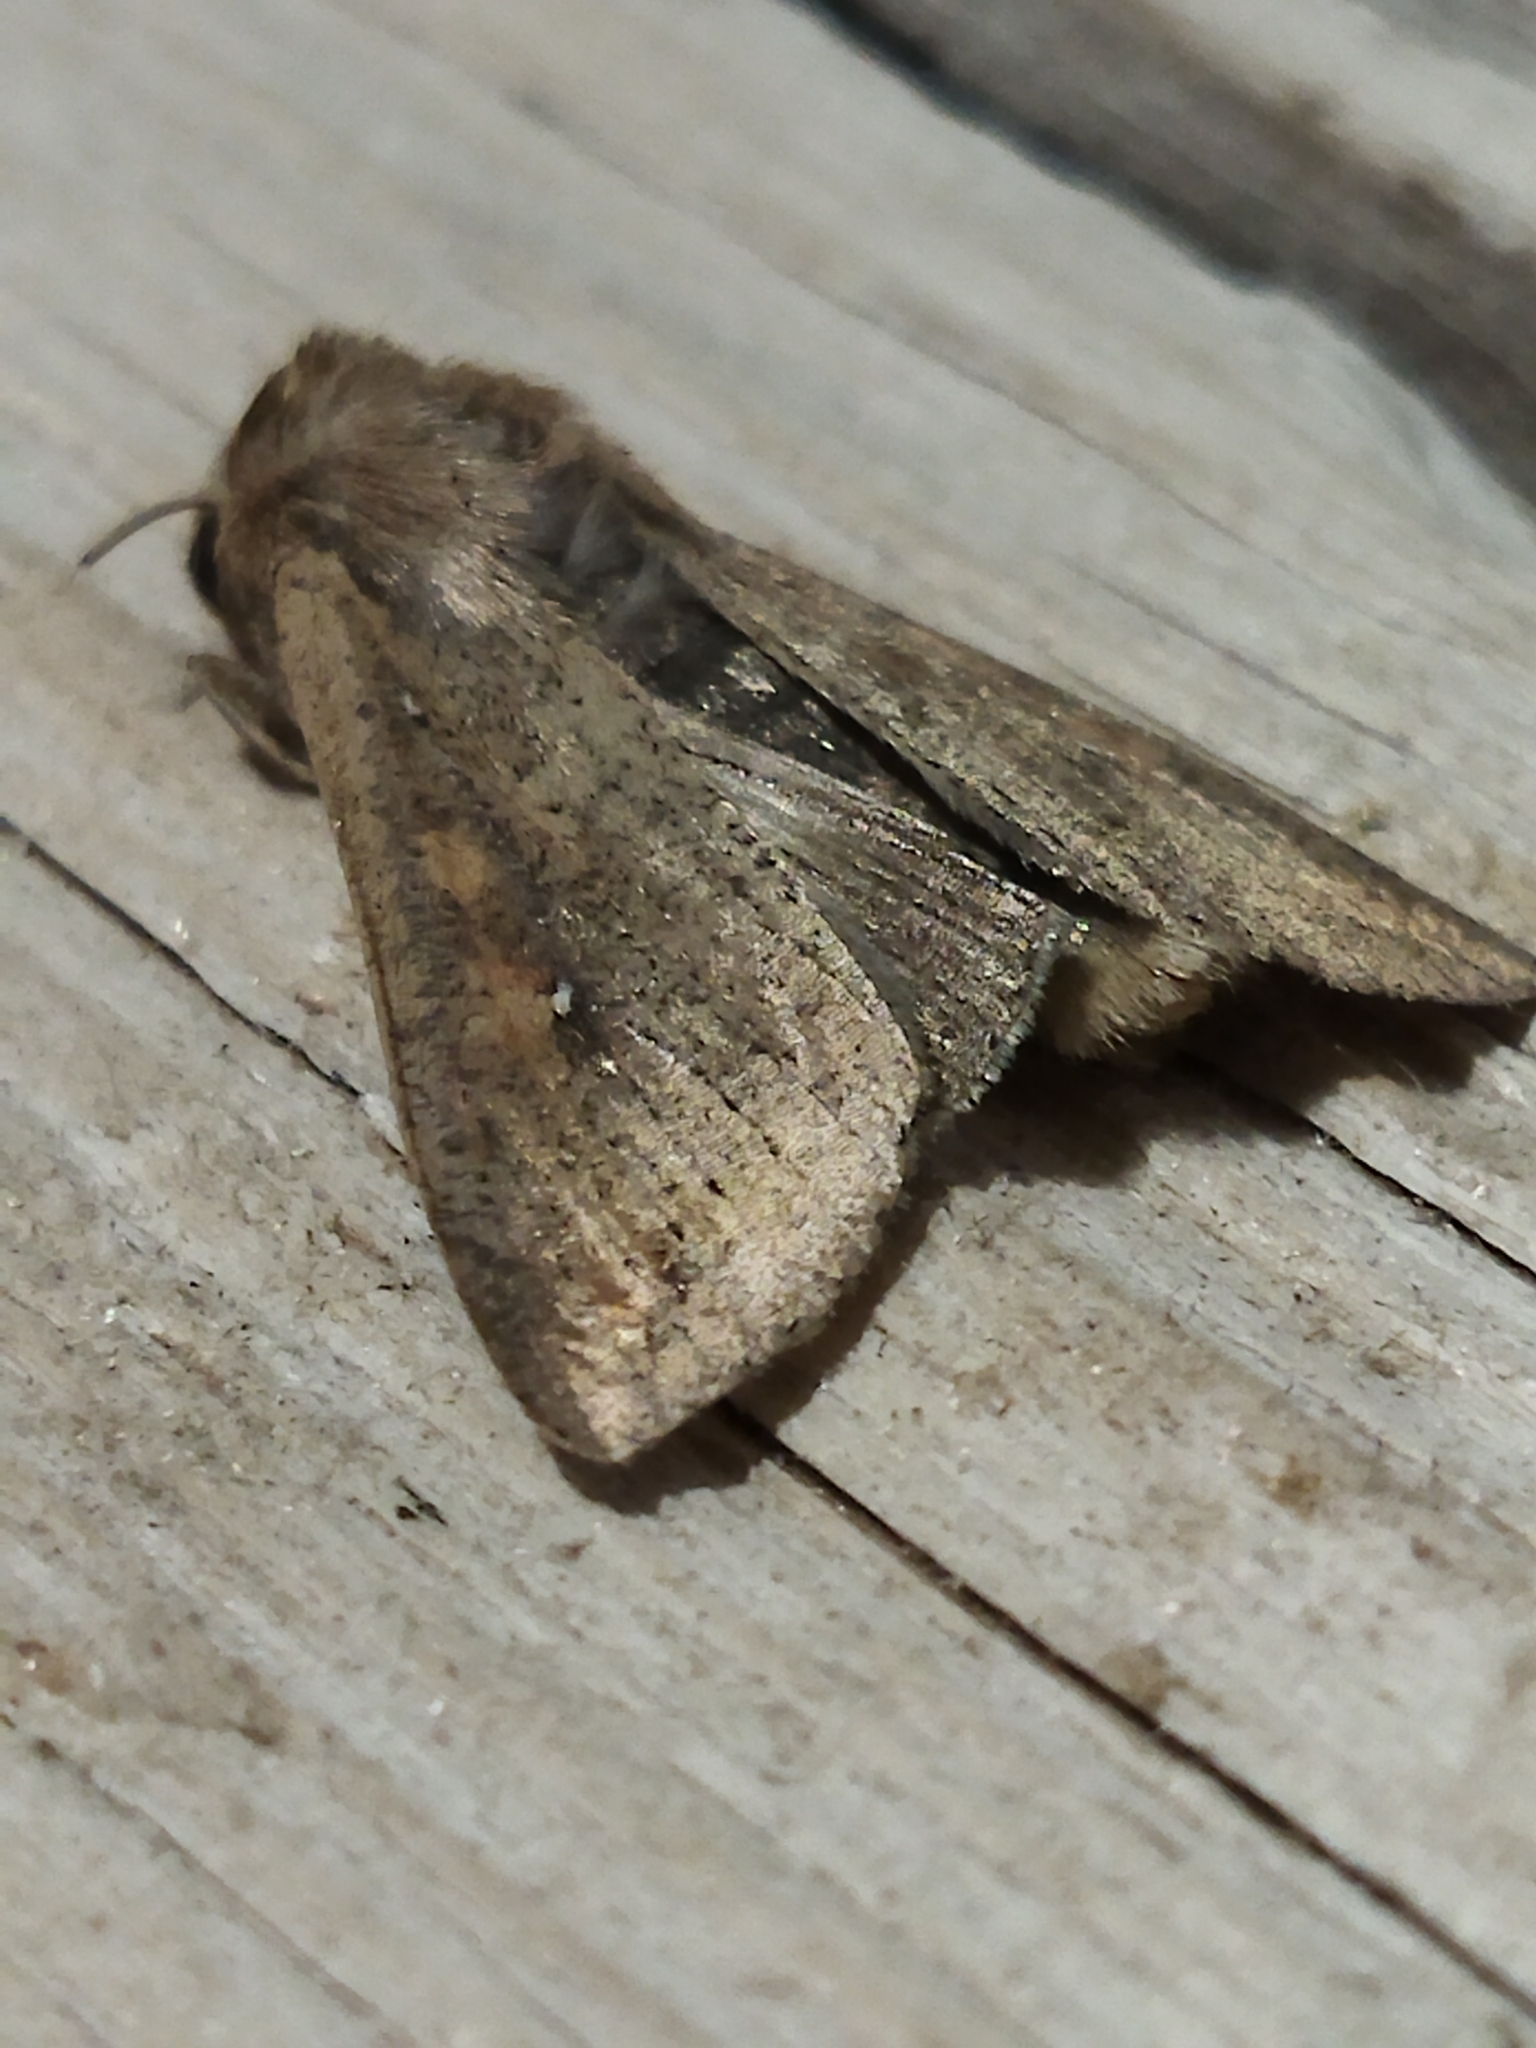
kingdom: Animalia
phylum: Arthropoda
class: Insecta
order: Lepidoptera
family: Noctuidae
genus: Mythimna
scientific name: Mythimna unipuncta
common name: White-speck
